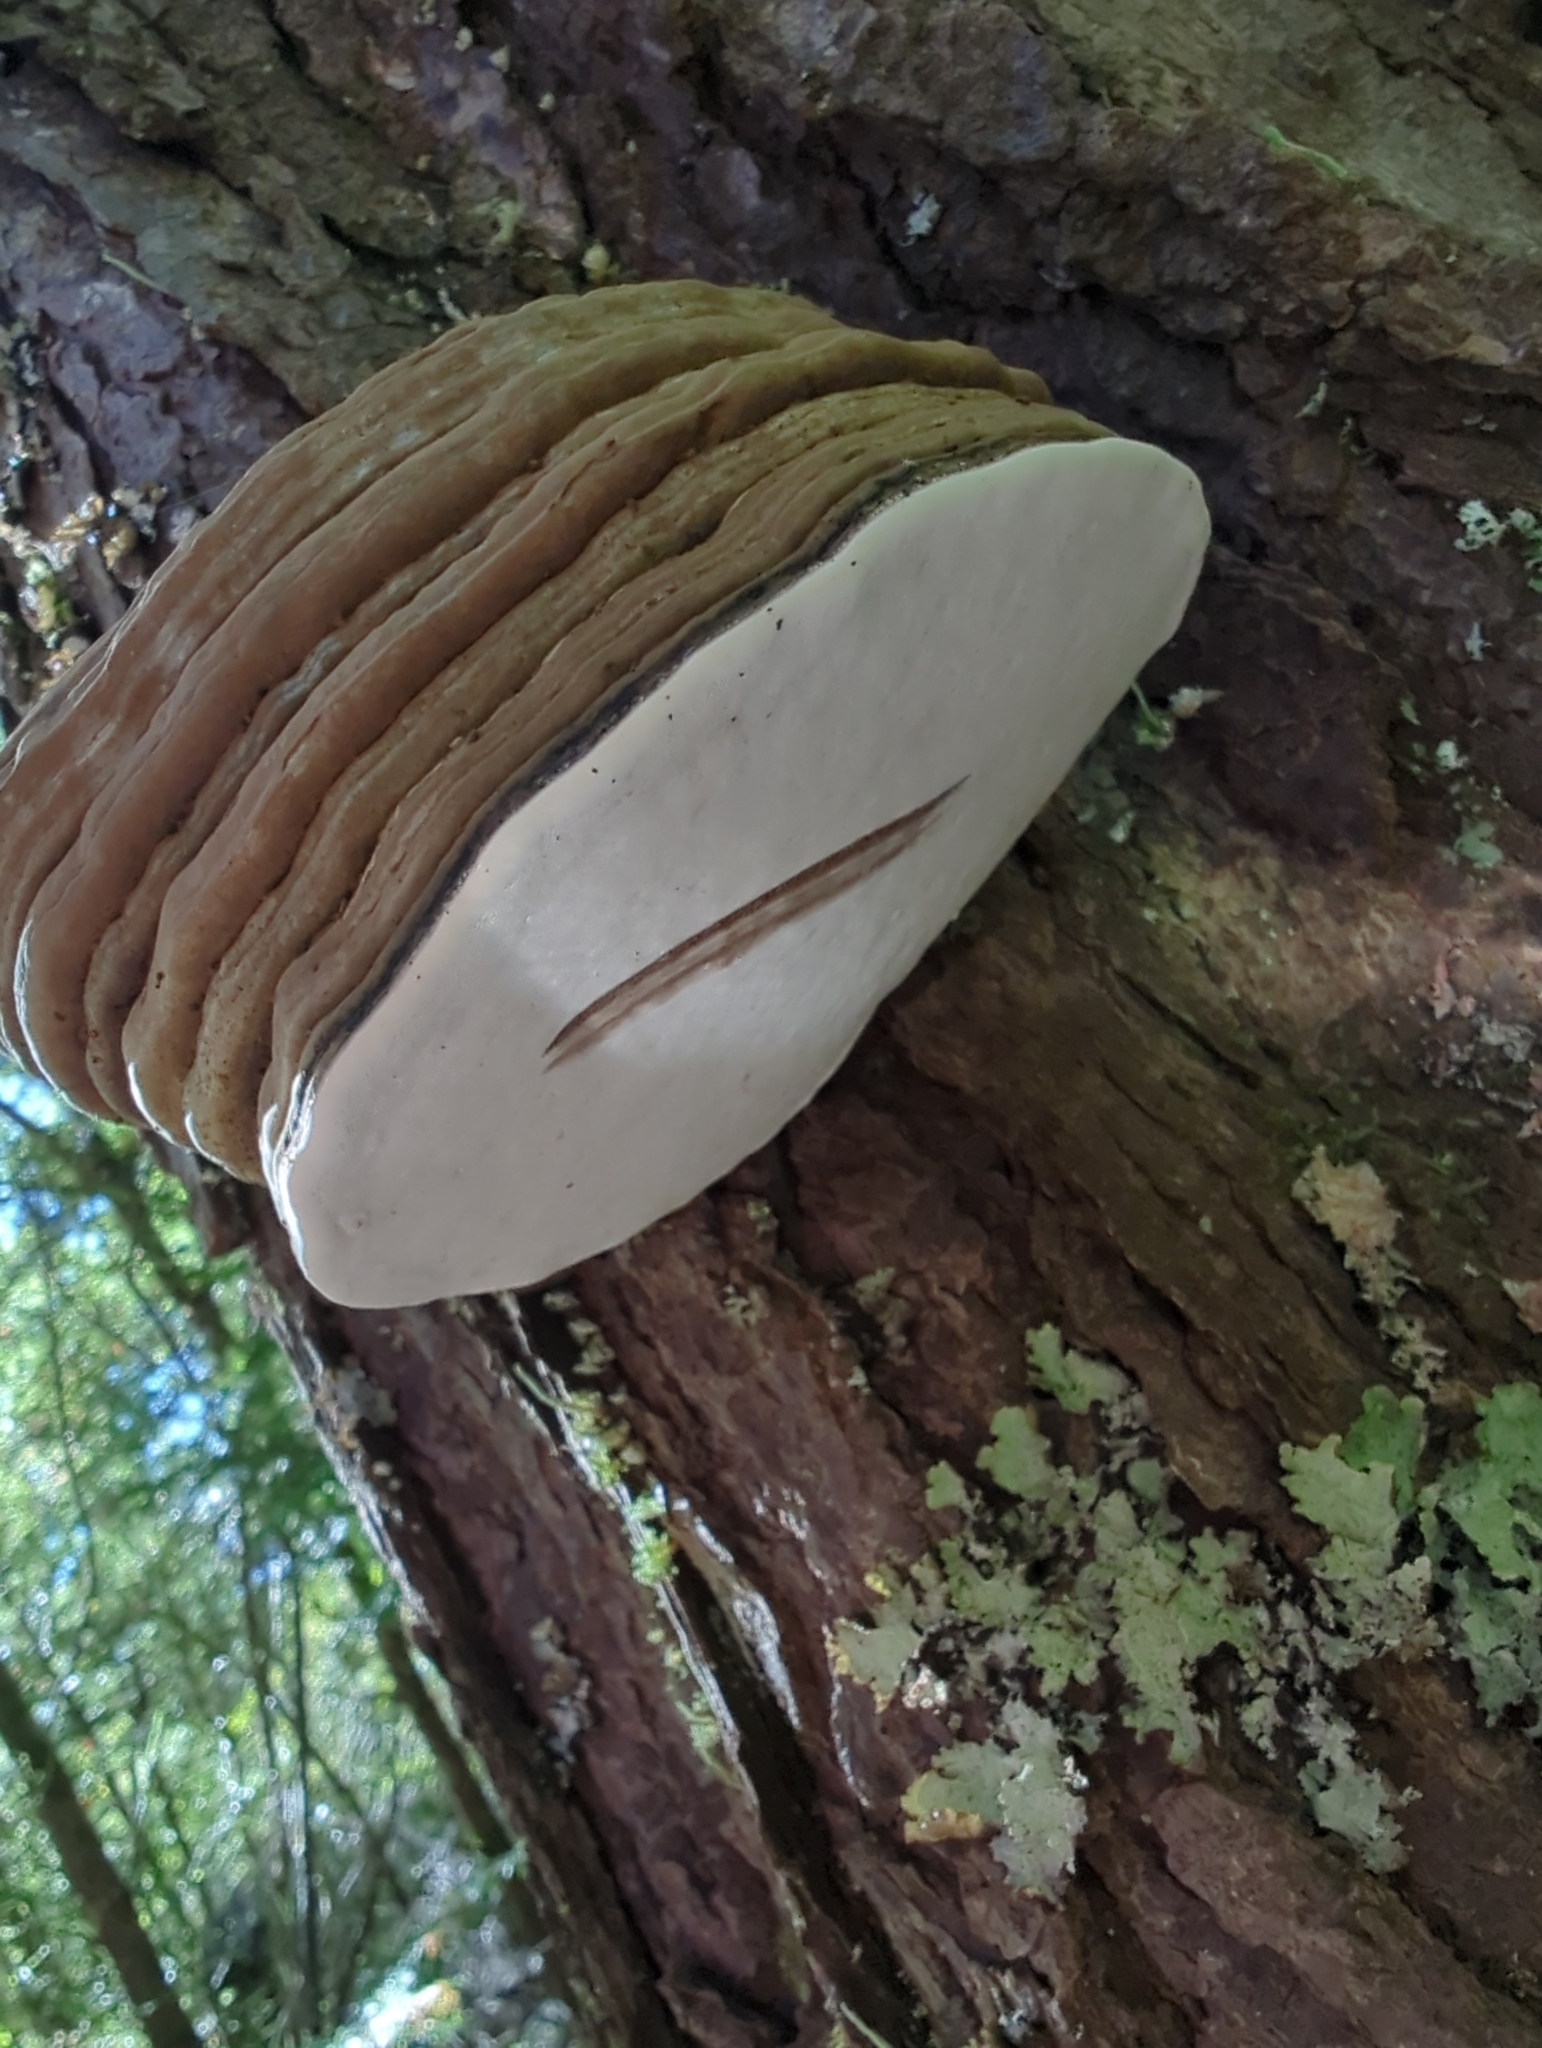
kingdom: Fungi
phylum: Basidiomycota
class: Agaricomycetes
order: Polyporales
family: Polyporaceae
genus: Ganoderma
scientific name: Ganoderma applanatum
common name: Artist's bracket
